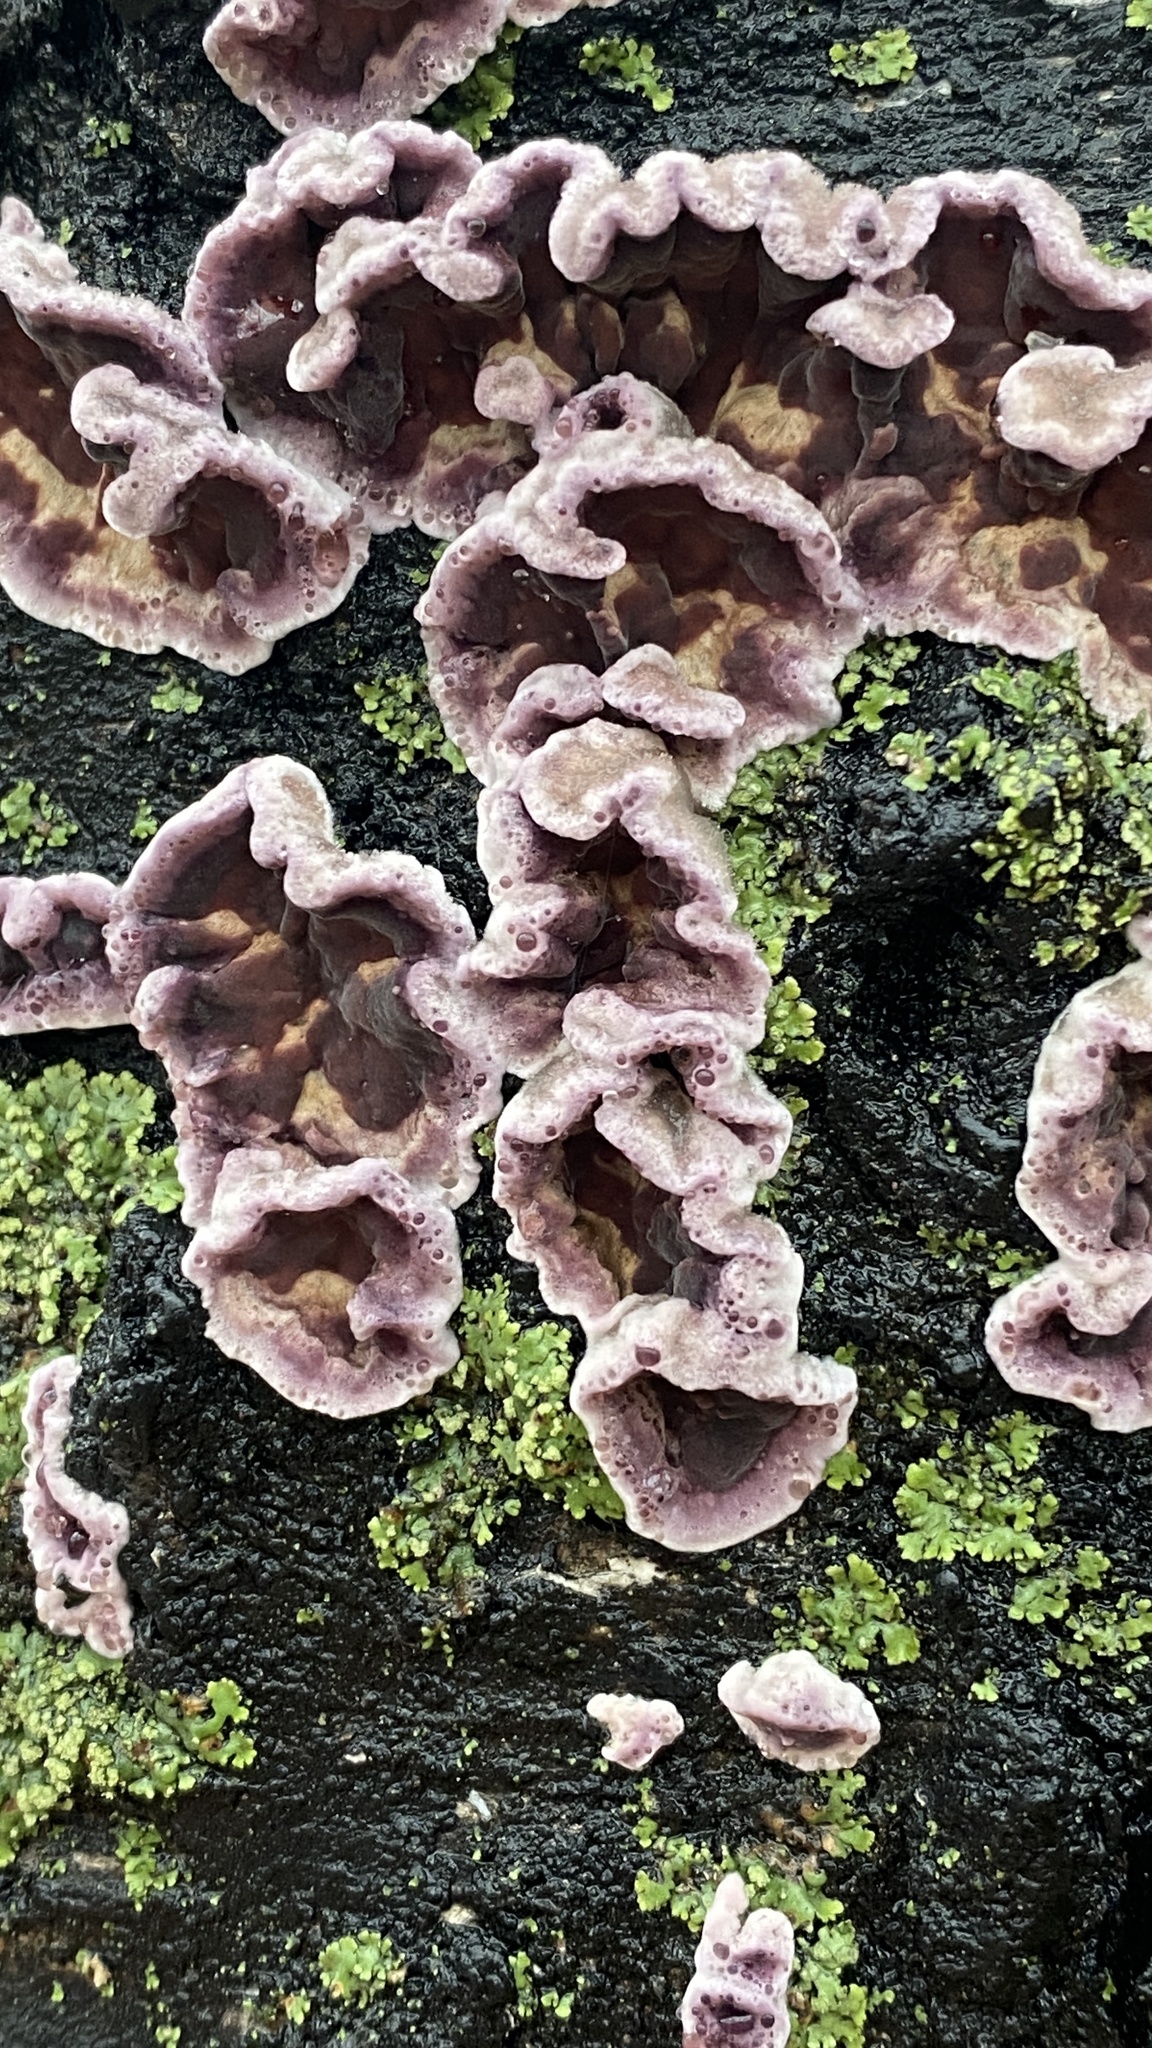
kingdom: Fungi
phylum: Basidiomycota
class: Agaricomycetes
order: Agaricales
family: Cyphellaceae
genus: Chondrostereum
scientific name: Chondrostereum purpureum
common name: Silver leaf disease
